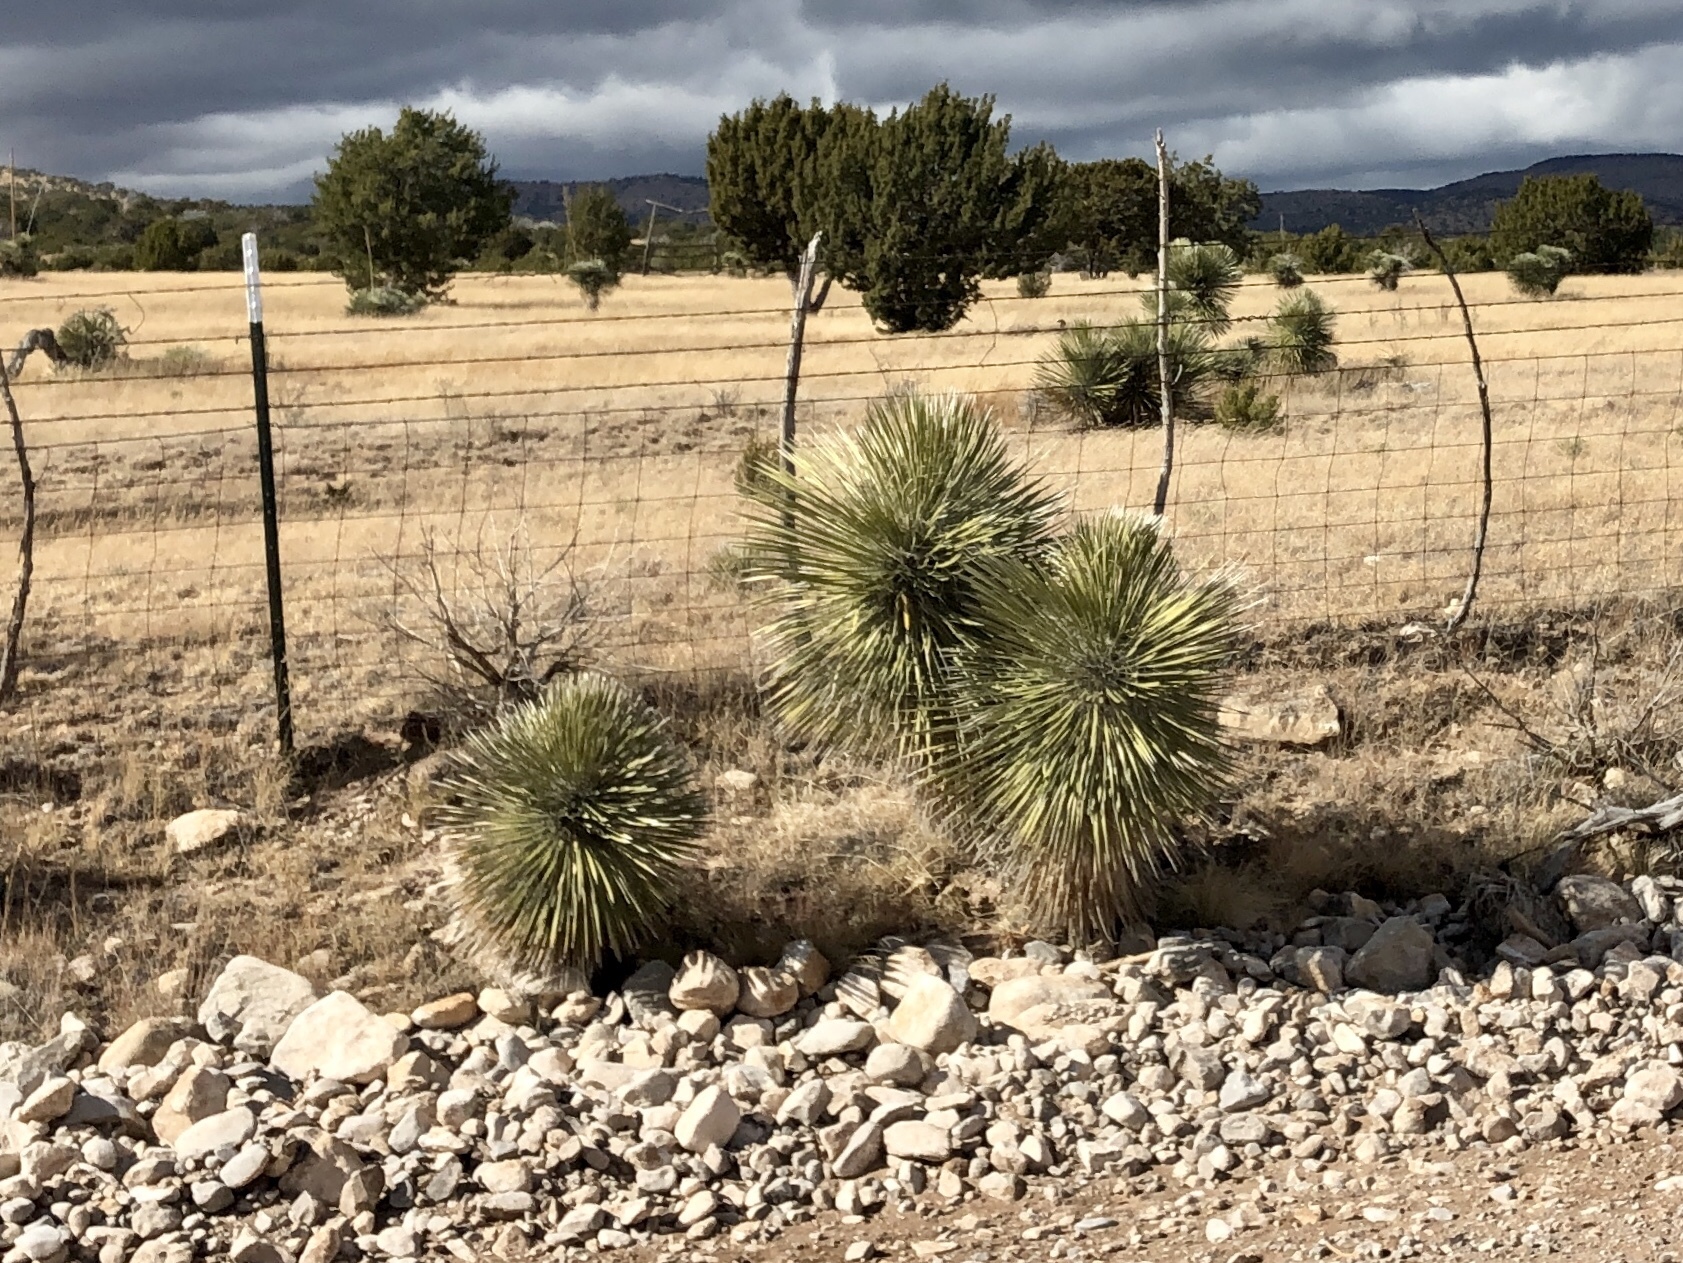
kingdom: Plantae
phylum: Tracheophyta
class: Liliopsida
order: Asparagales
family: Asparagaceae
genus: Yucca
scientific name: Yucca elata
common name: Palmella
